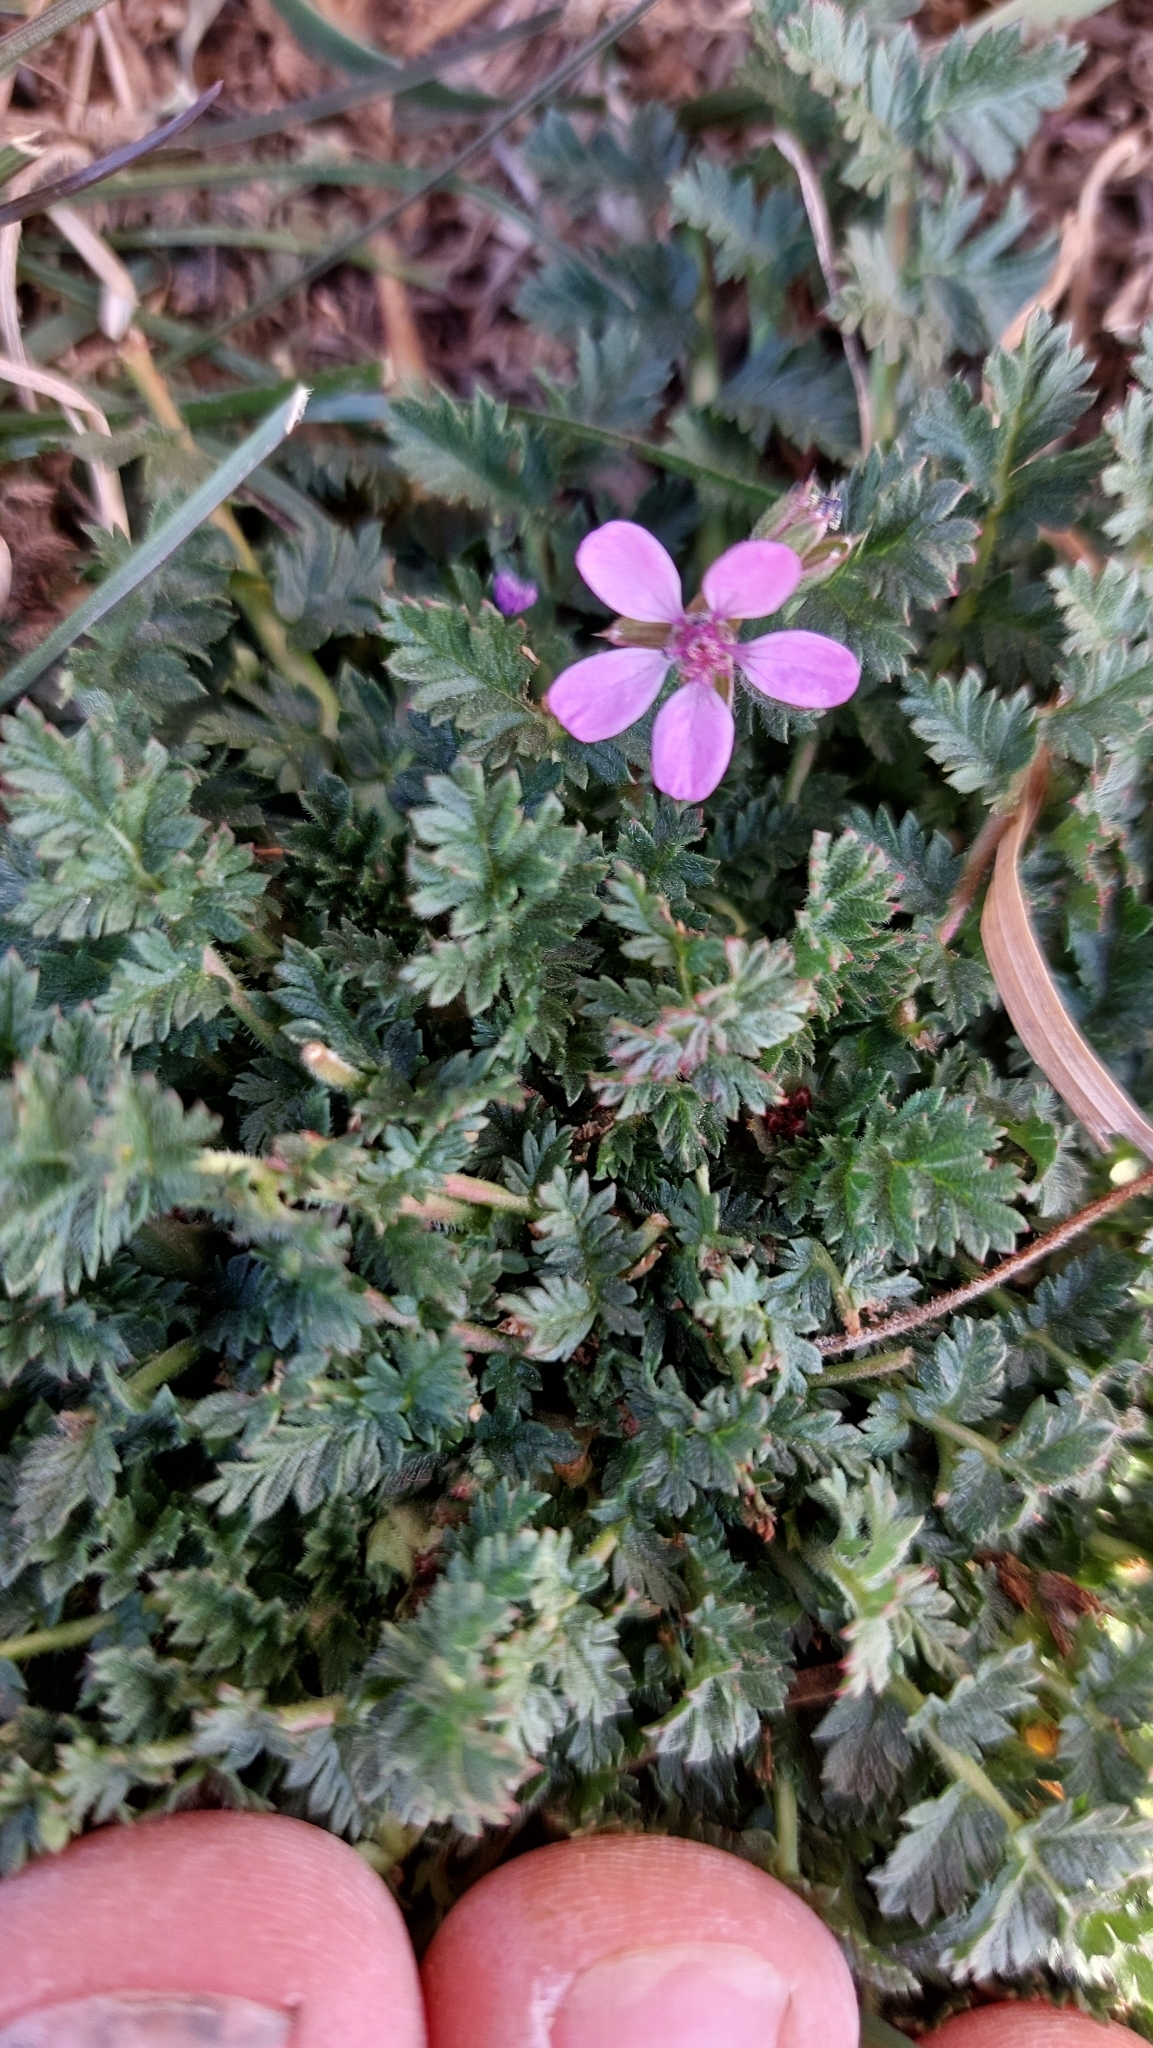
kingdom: Plantae
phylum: Tracheophyta
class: Magnoliopsida
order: Geraniales
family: Geraniaceae
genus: Erodium
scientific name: Erodium cicutarium
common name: Common stork's-bill
